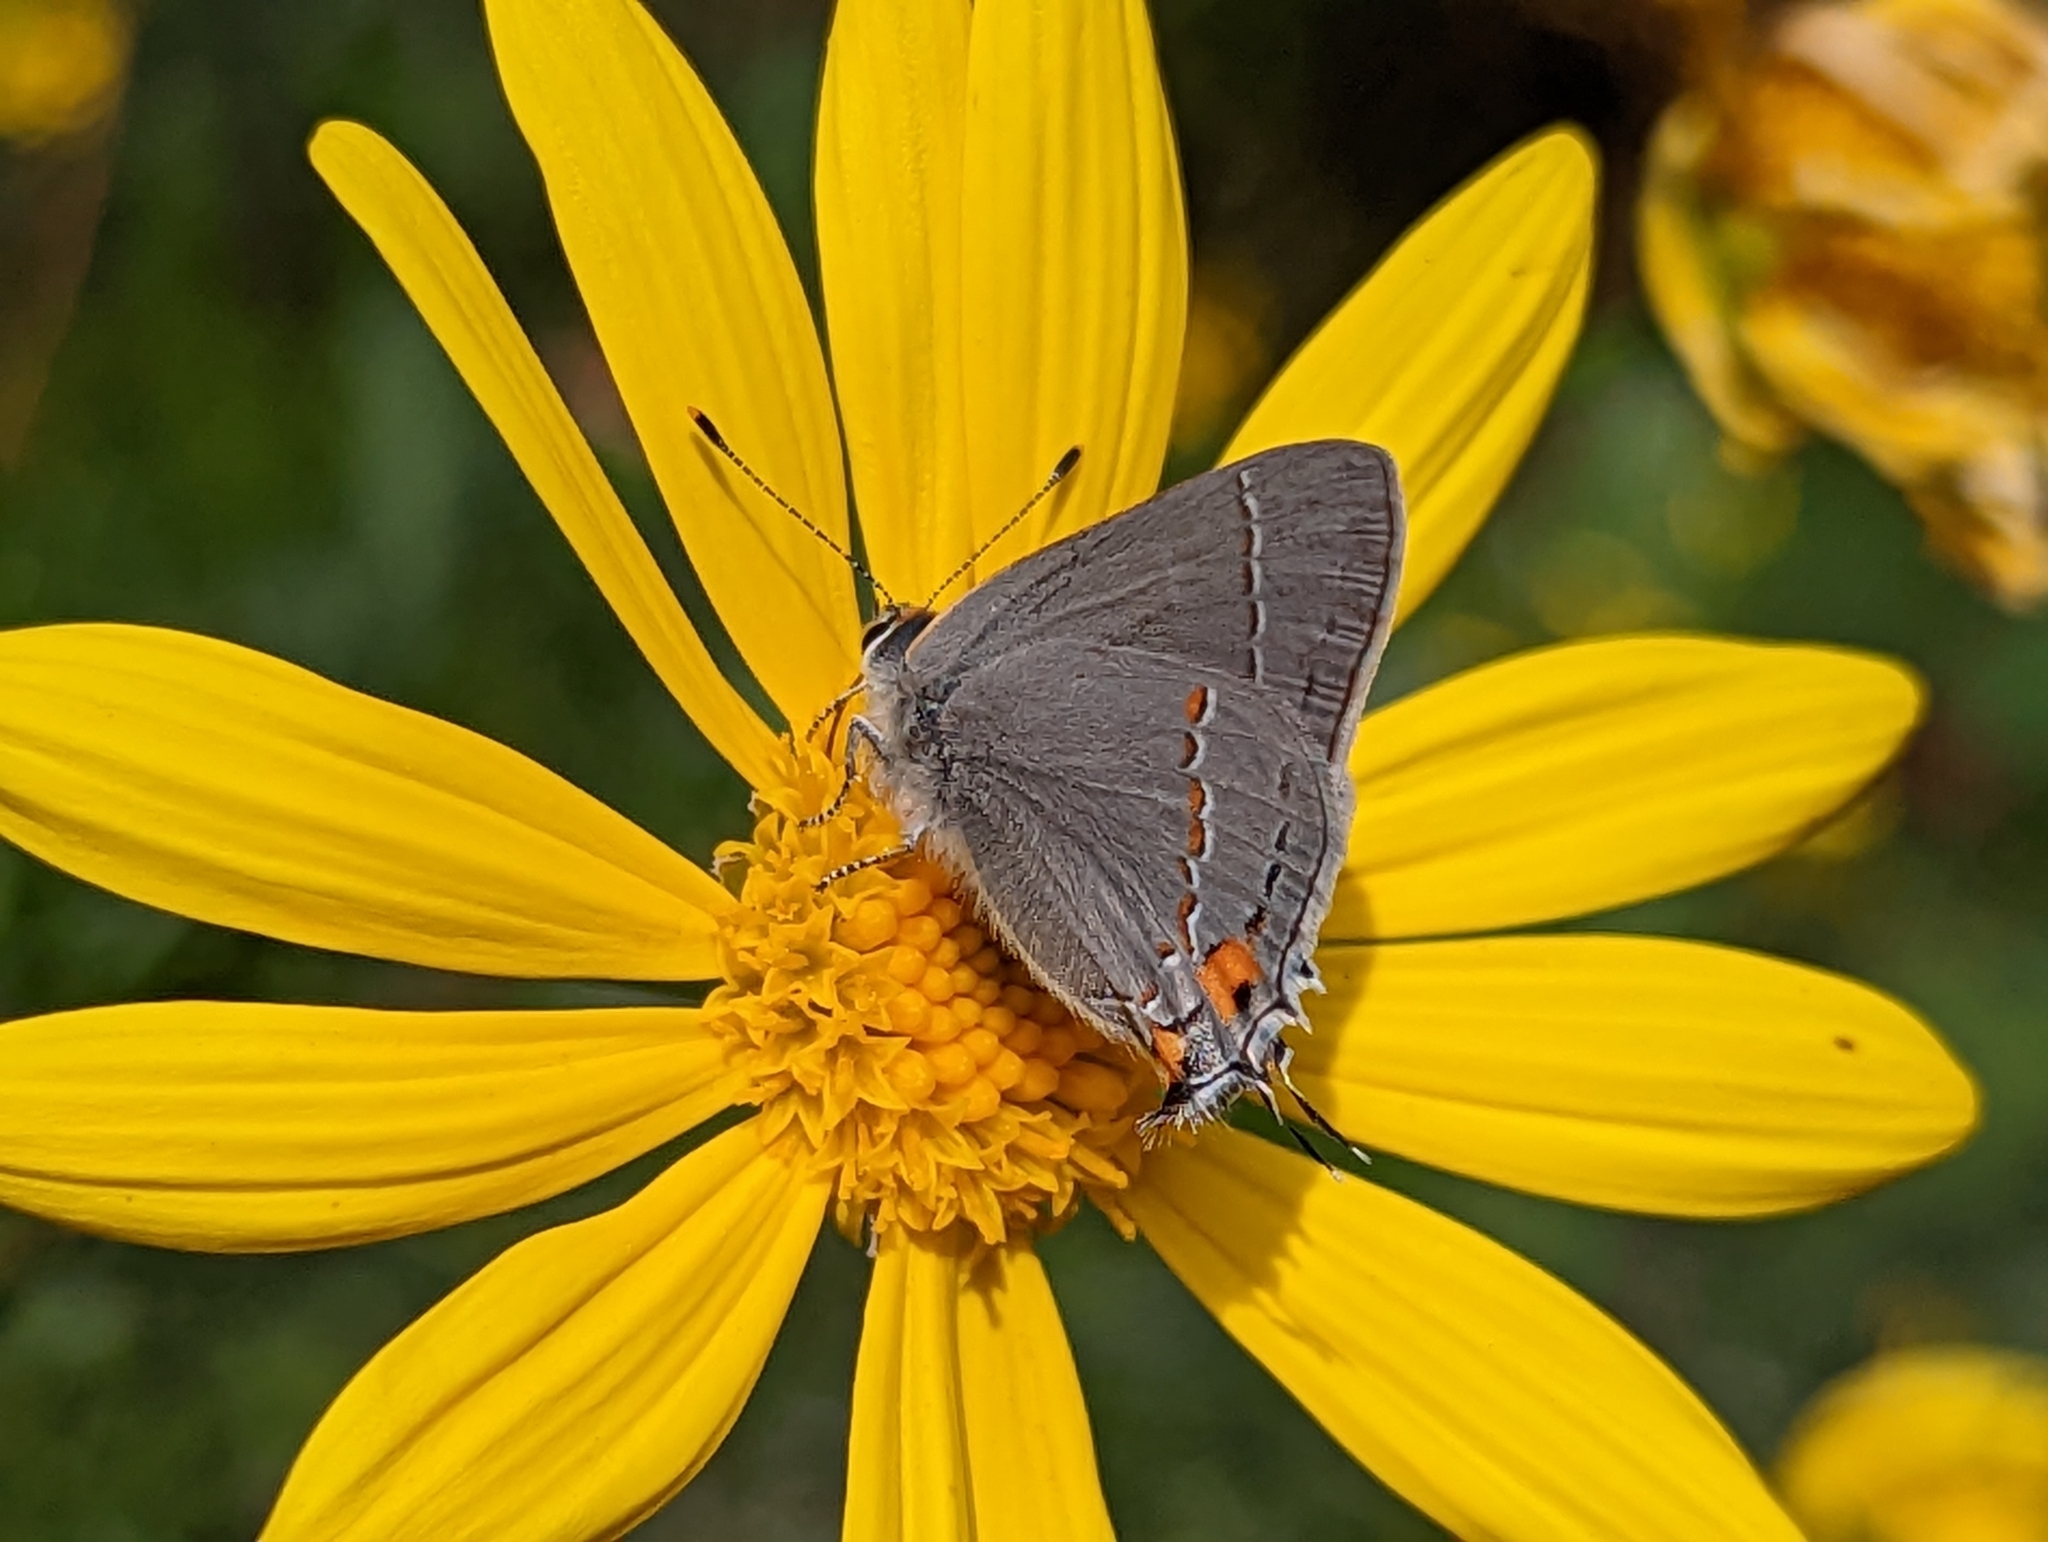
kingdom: Animalia
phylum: Arthropoda
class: Insecta
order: Lepidoptera
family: Lycaenidae
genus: Strymon
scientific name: Strymon melinus
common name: Gray hairstreak
